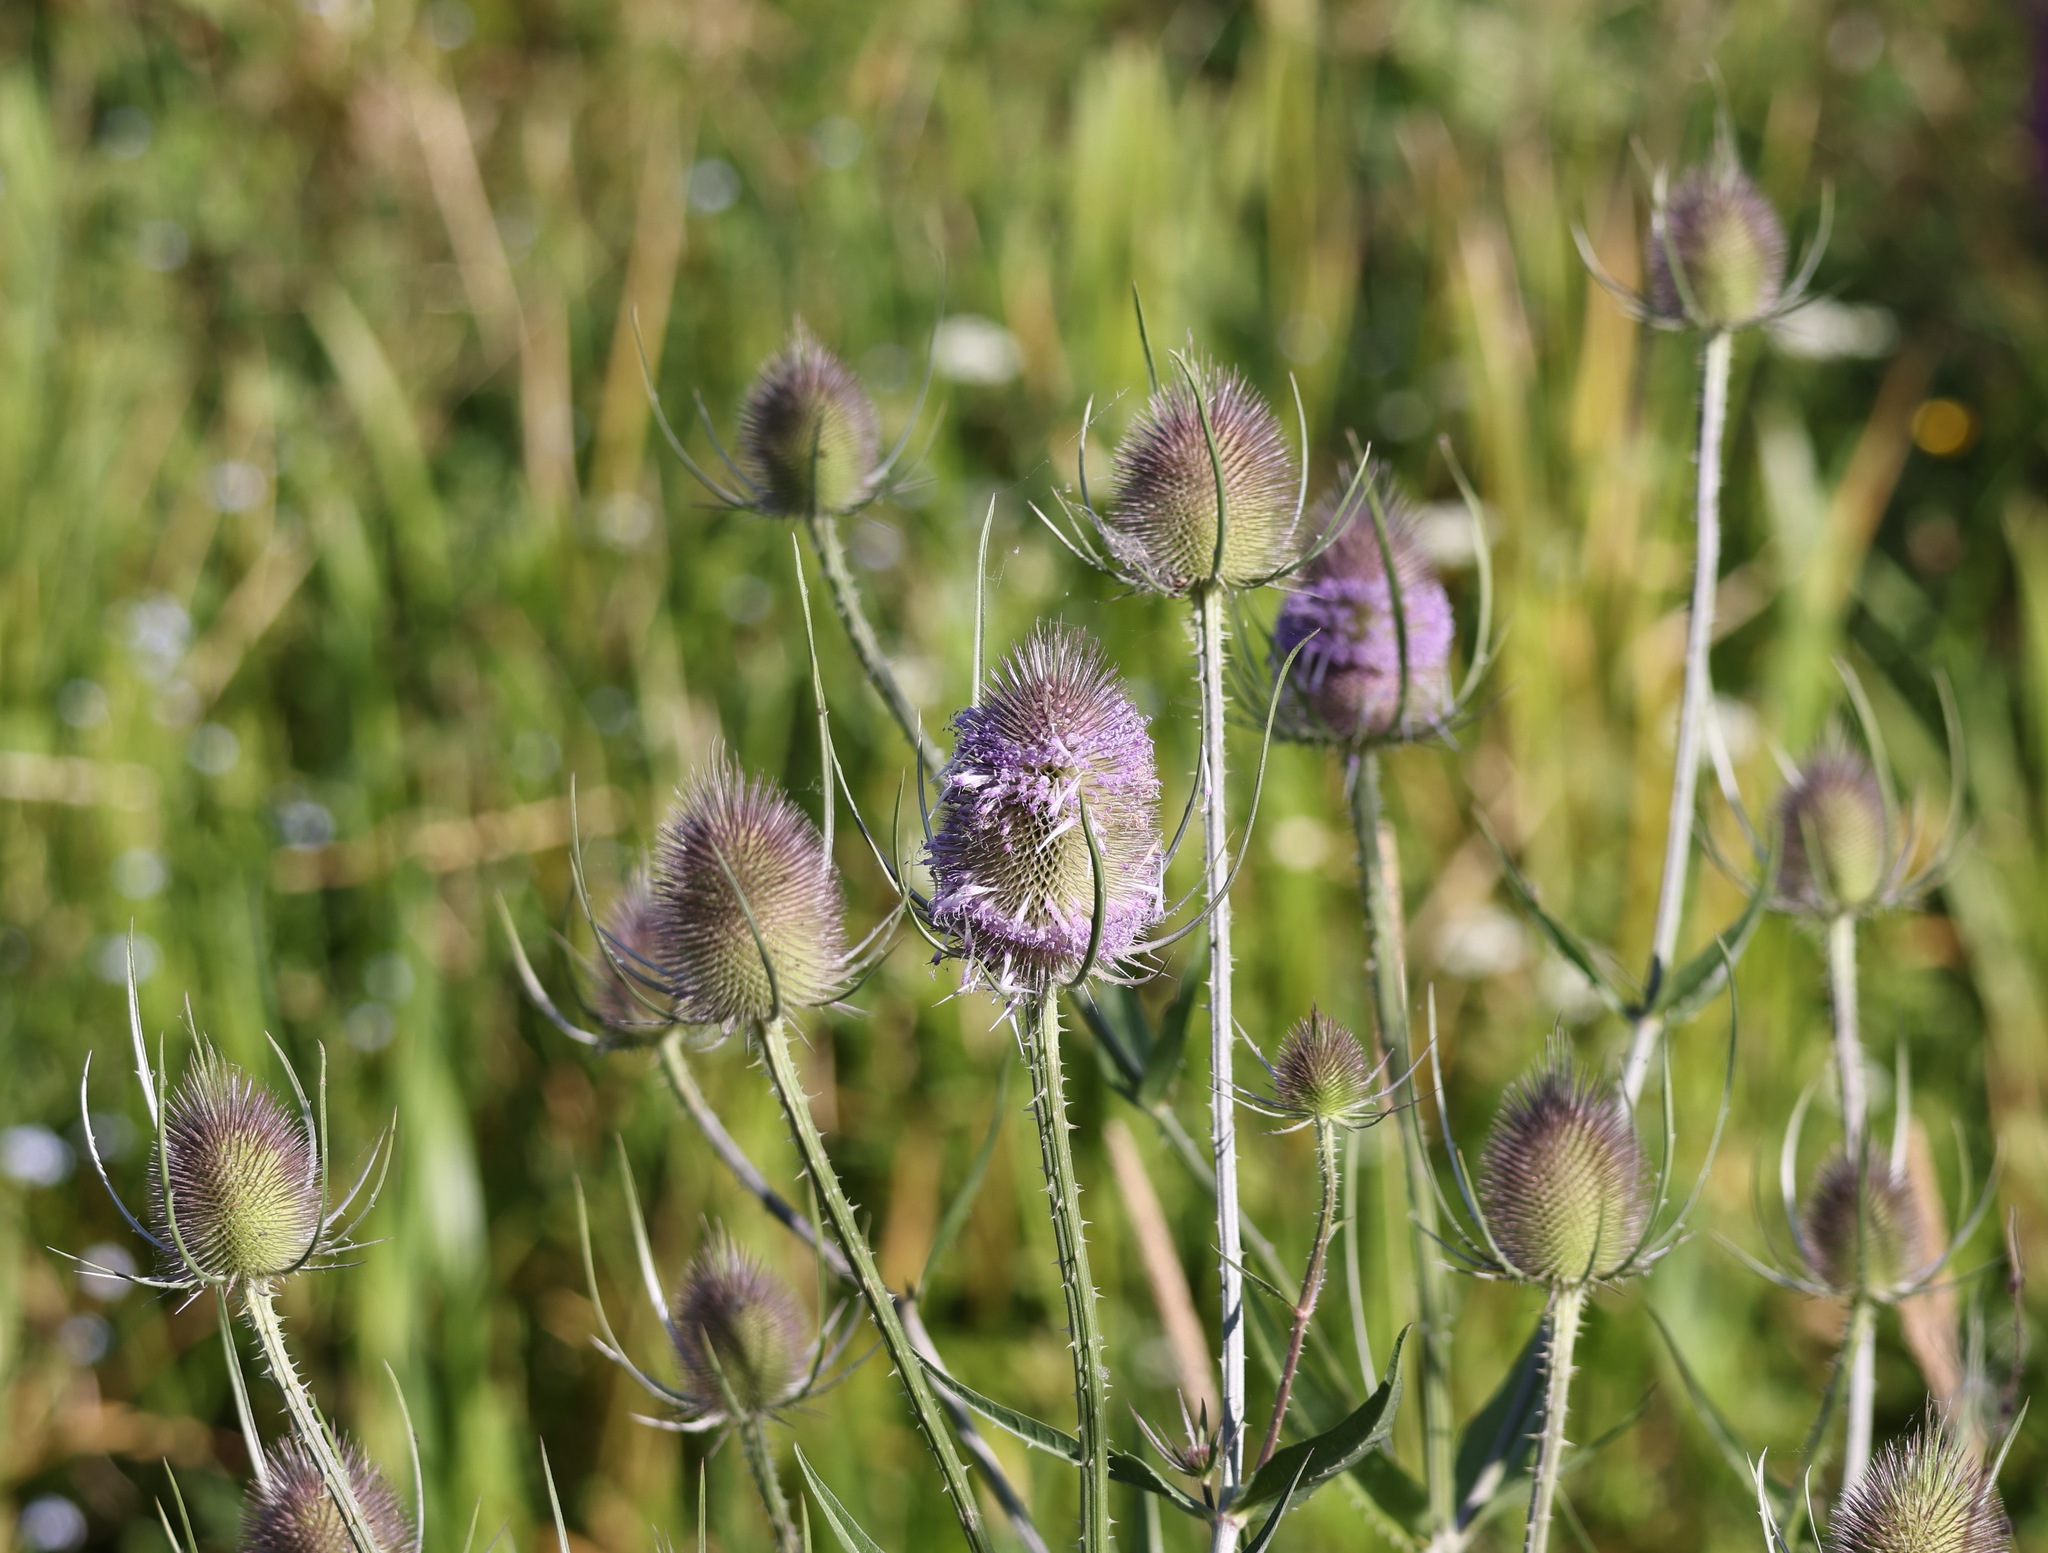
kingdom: Plantae
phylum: Tracheophyta
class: Magnoliopsida
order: Dipsacales
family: Caprifoliaceae
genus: Dipsacus
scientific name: Dipsacus fullonum
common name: Teasel
